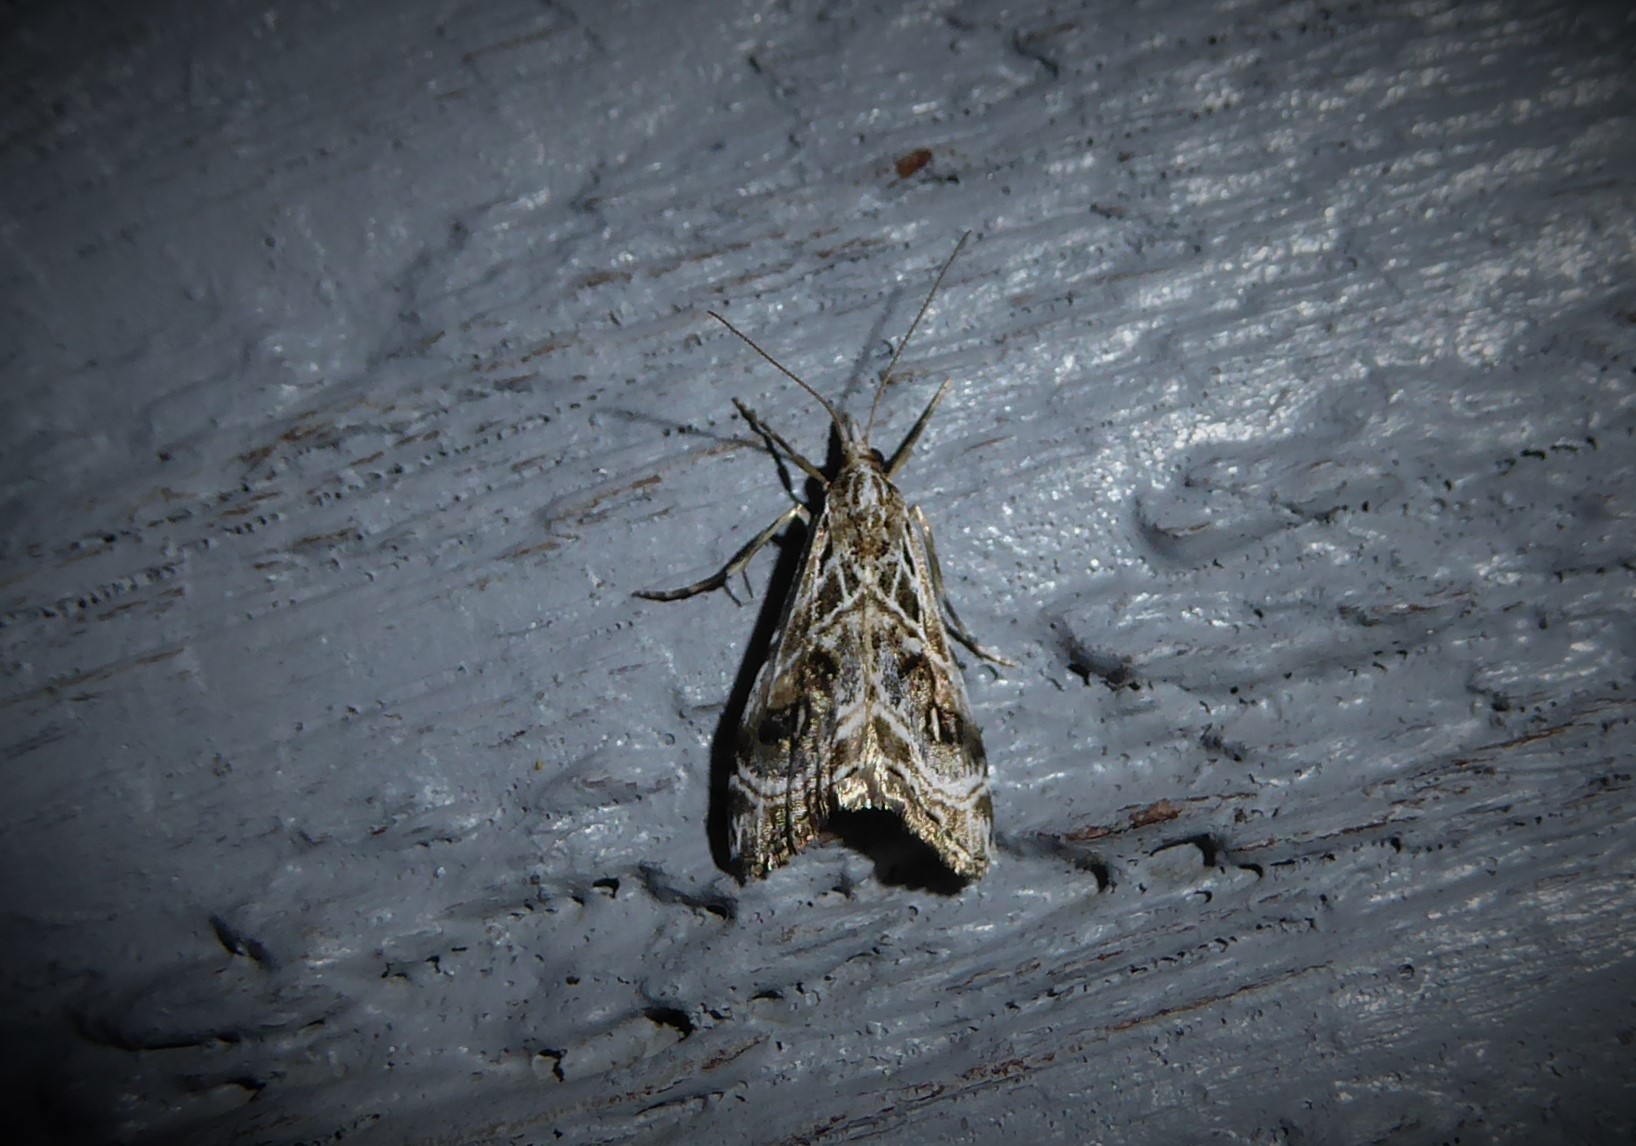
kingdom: Animalia
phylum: Arthropoda
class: Insecta
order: Lepidoptera
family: Crambidae
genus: Gadira
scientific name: Gadira acerella
